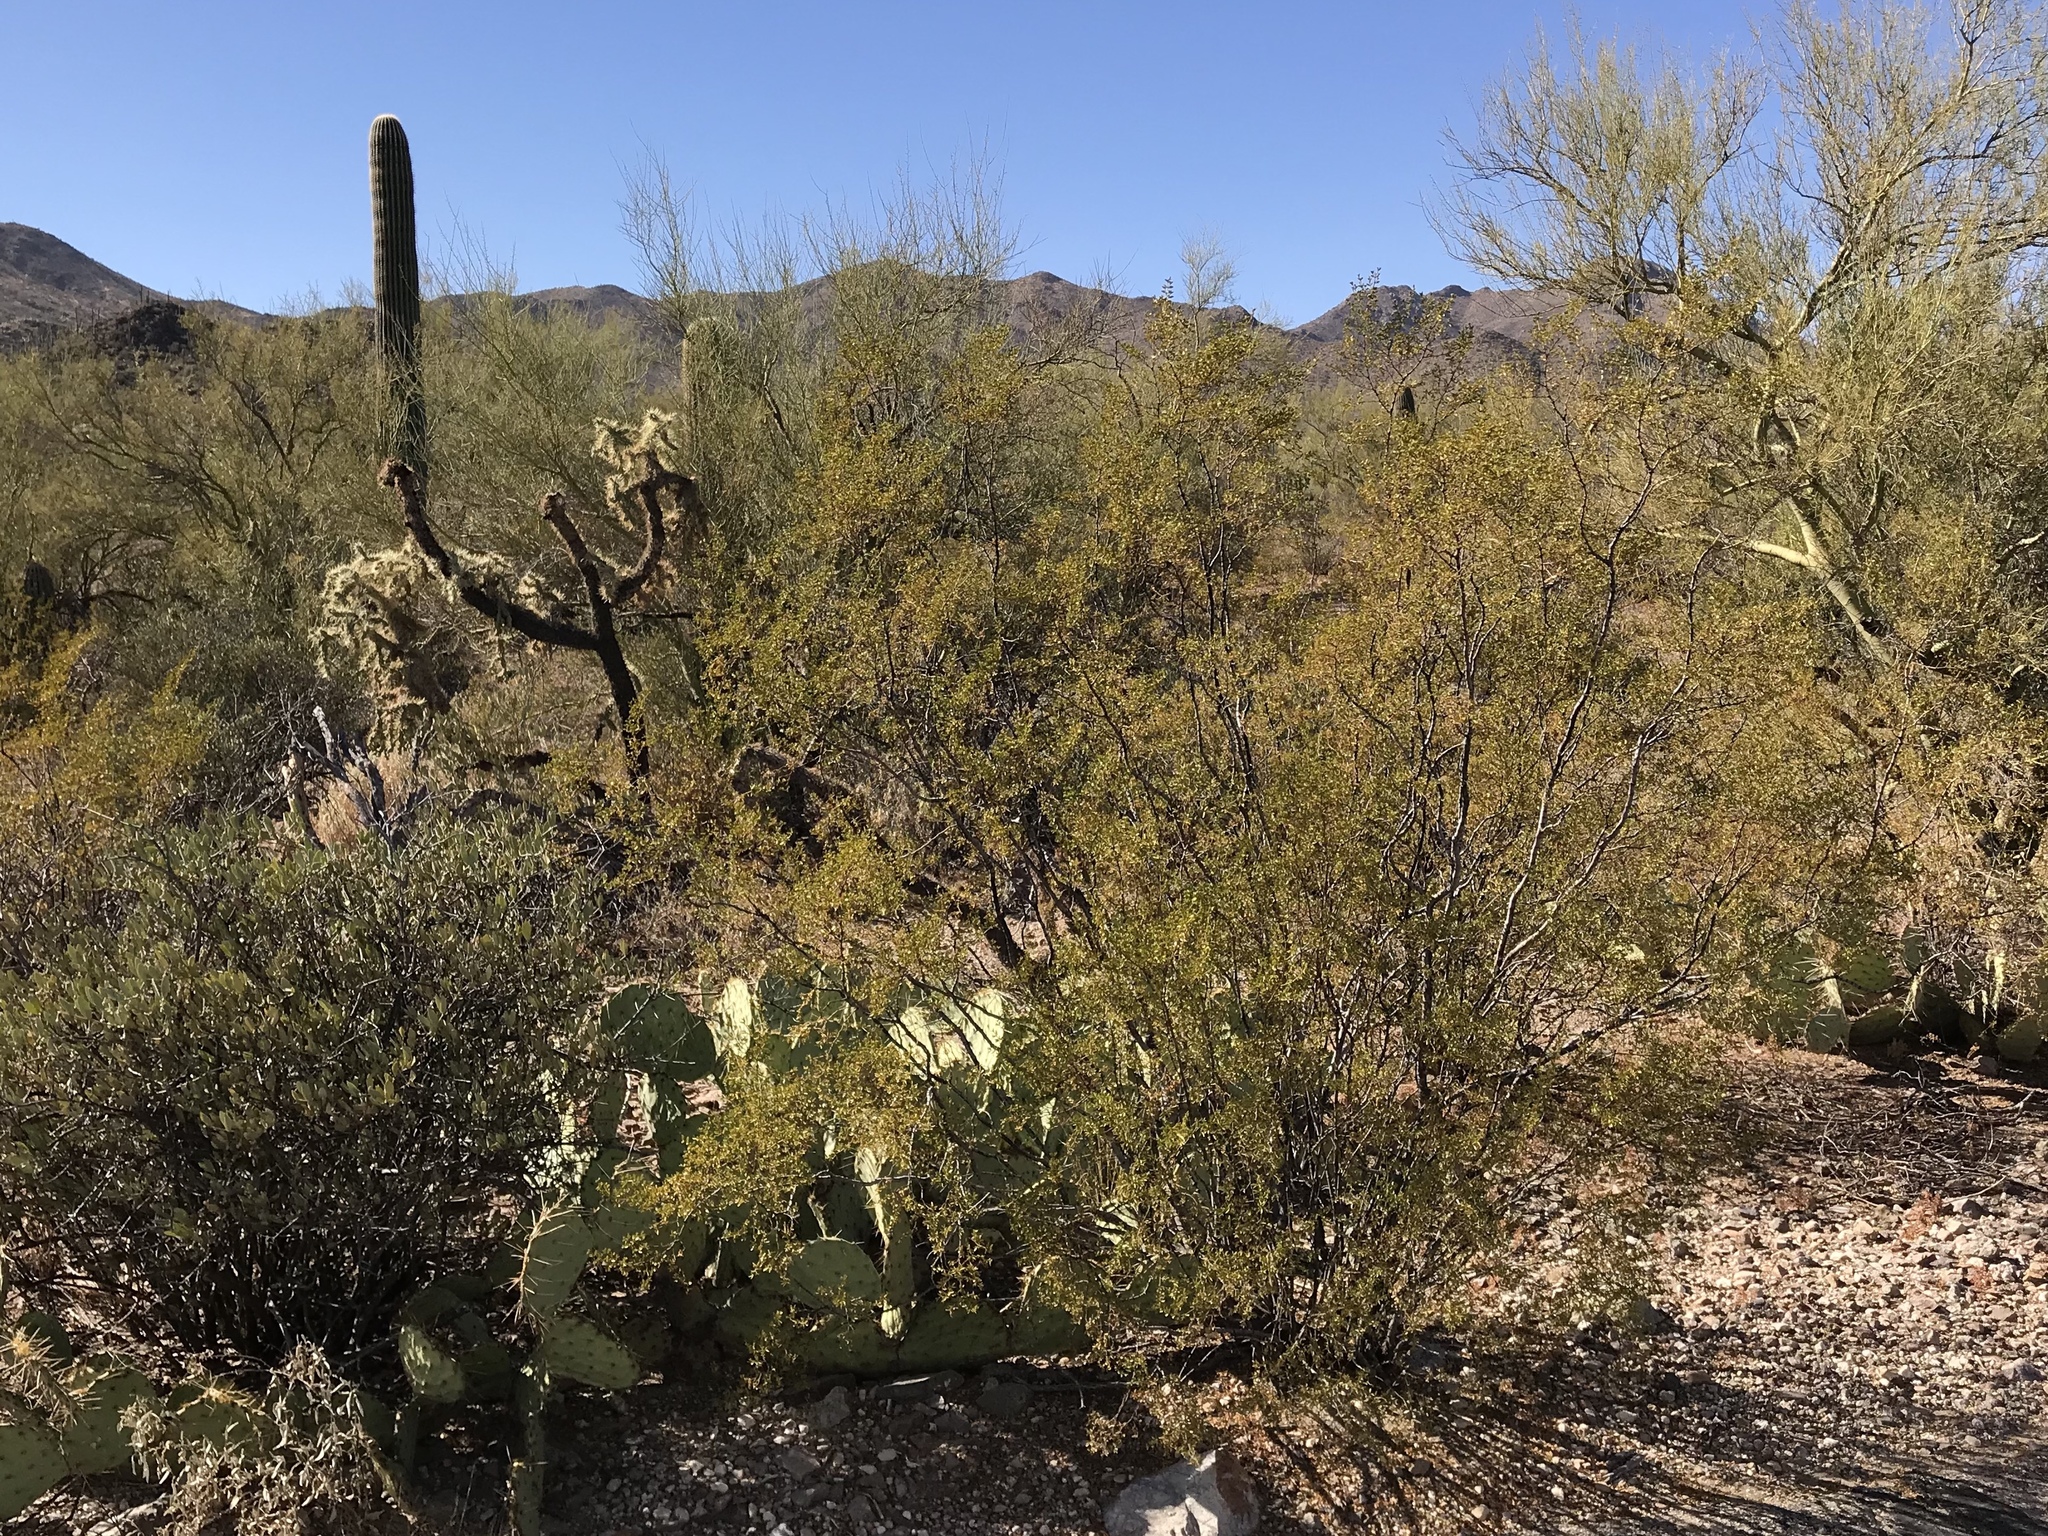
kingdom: Plantae
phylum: Tracheophyta
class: Magnoliopsida
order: Fabales
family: Fabaceae
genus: Vachellia
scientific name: Vachellia constricta
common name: Mescat acacia
